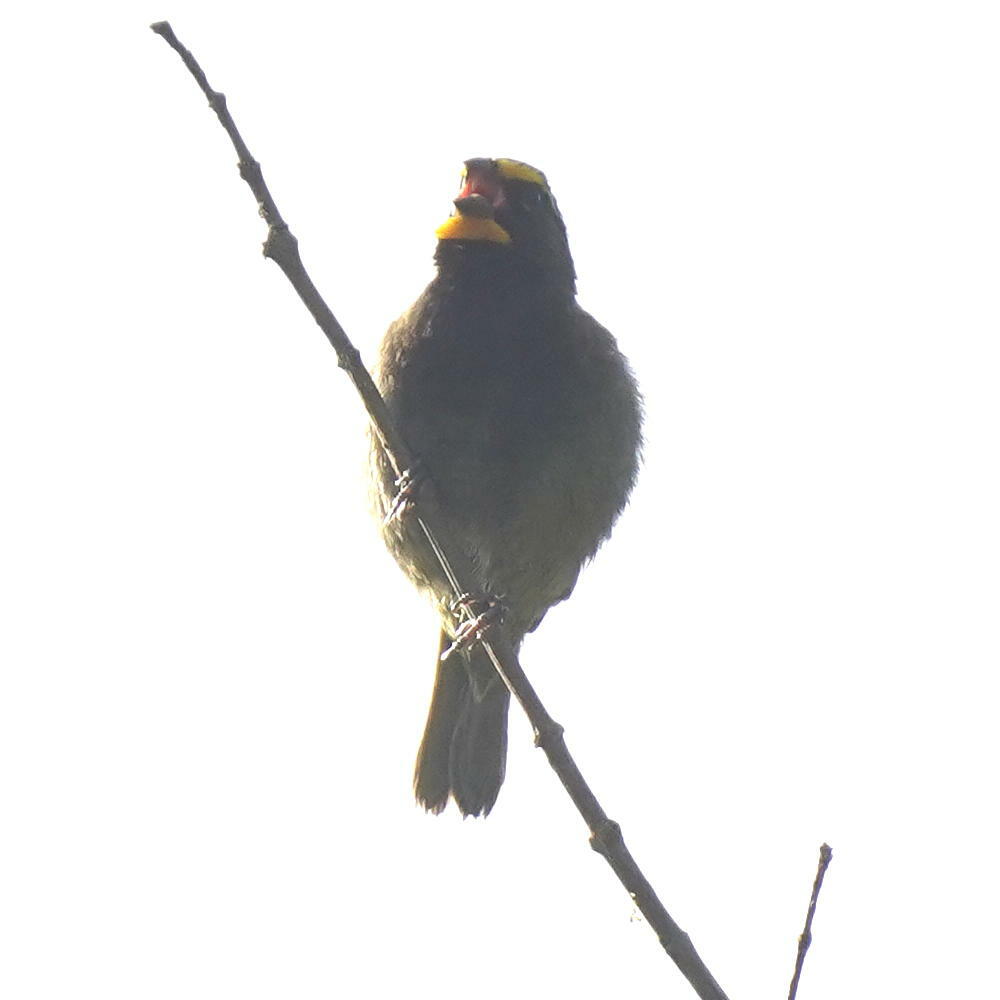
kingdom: Animalia
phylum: Chordata
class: Aves
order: Passeriformes
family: Thraupidae
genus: Tiaris
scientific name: Tiaris olivaceus
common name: Yellow-faced grassquit
